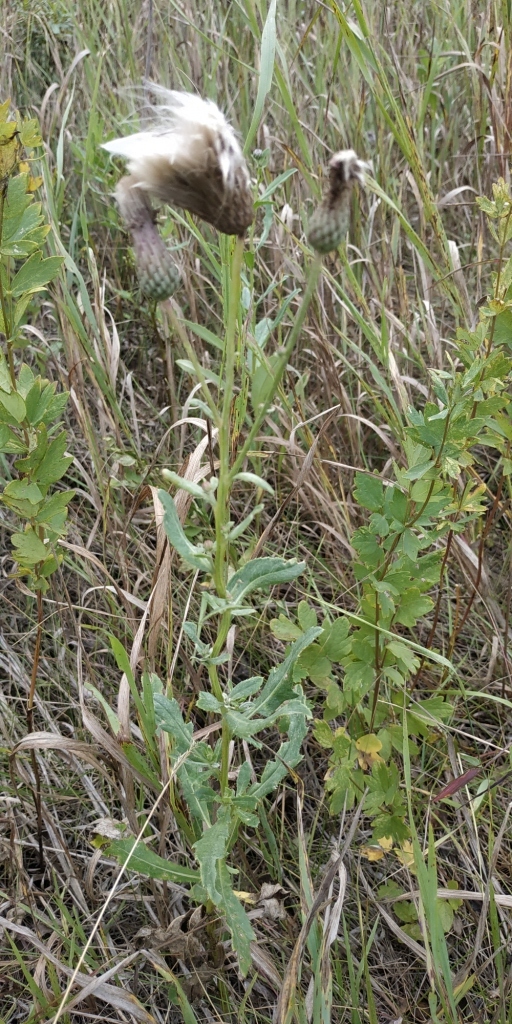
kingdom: Plantae
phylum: Tracheophyta
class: Magnoliopsida
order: Asterales
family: Asteraceae
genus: Cirsium
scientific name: Cirsium arvense
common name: Creeping thistle
